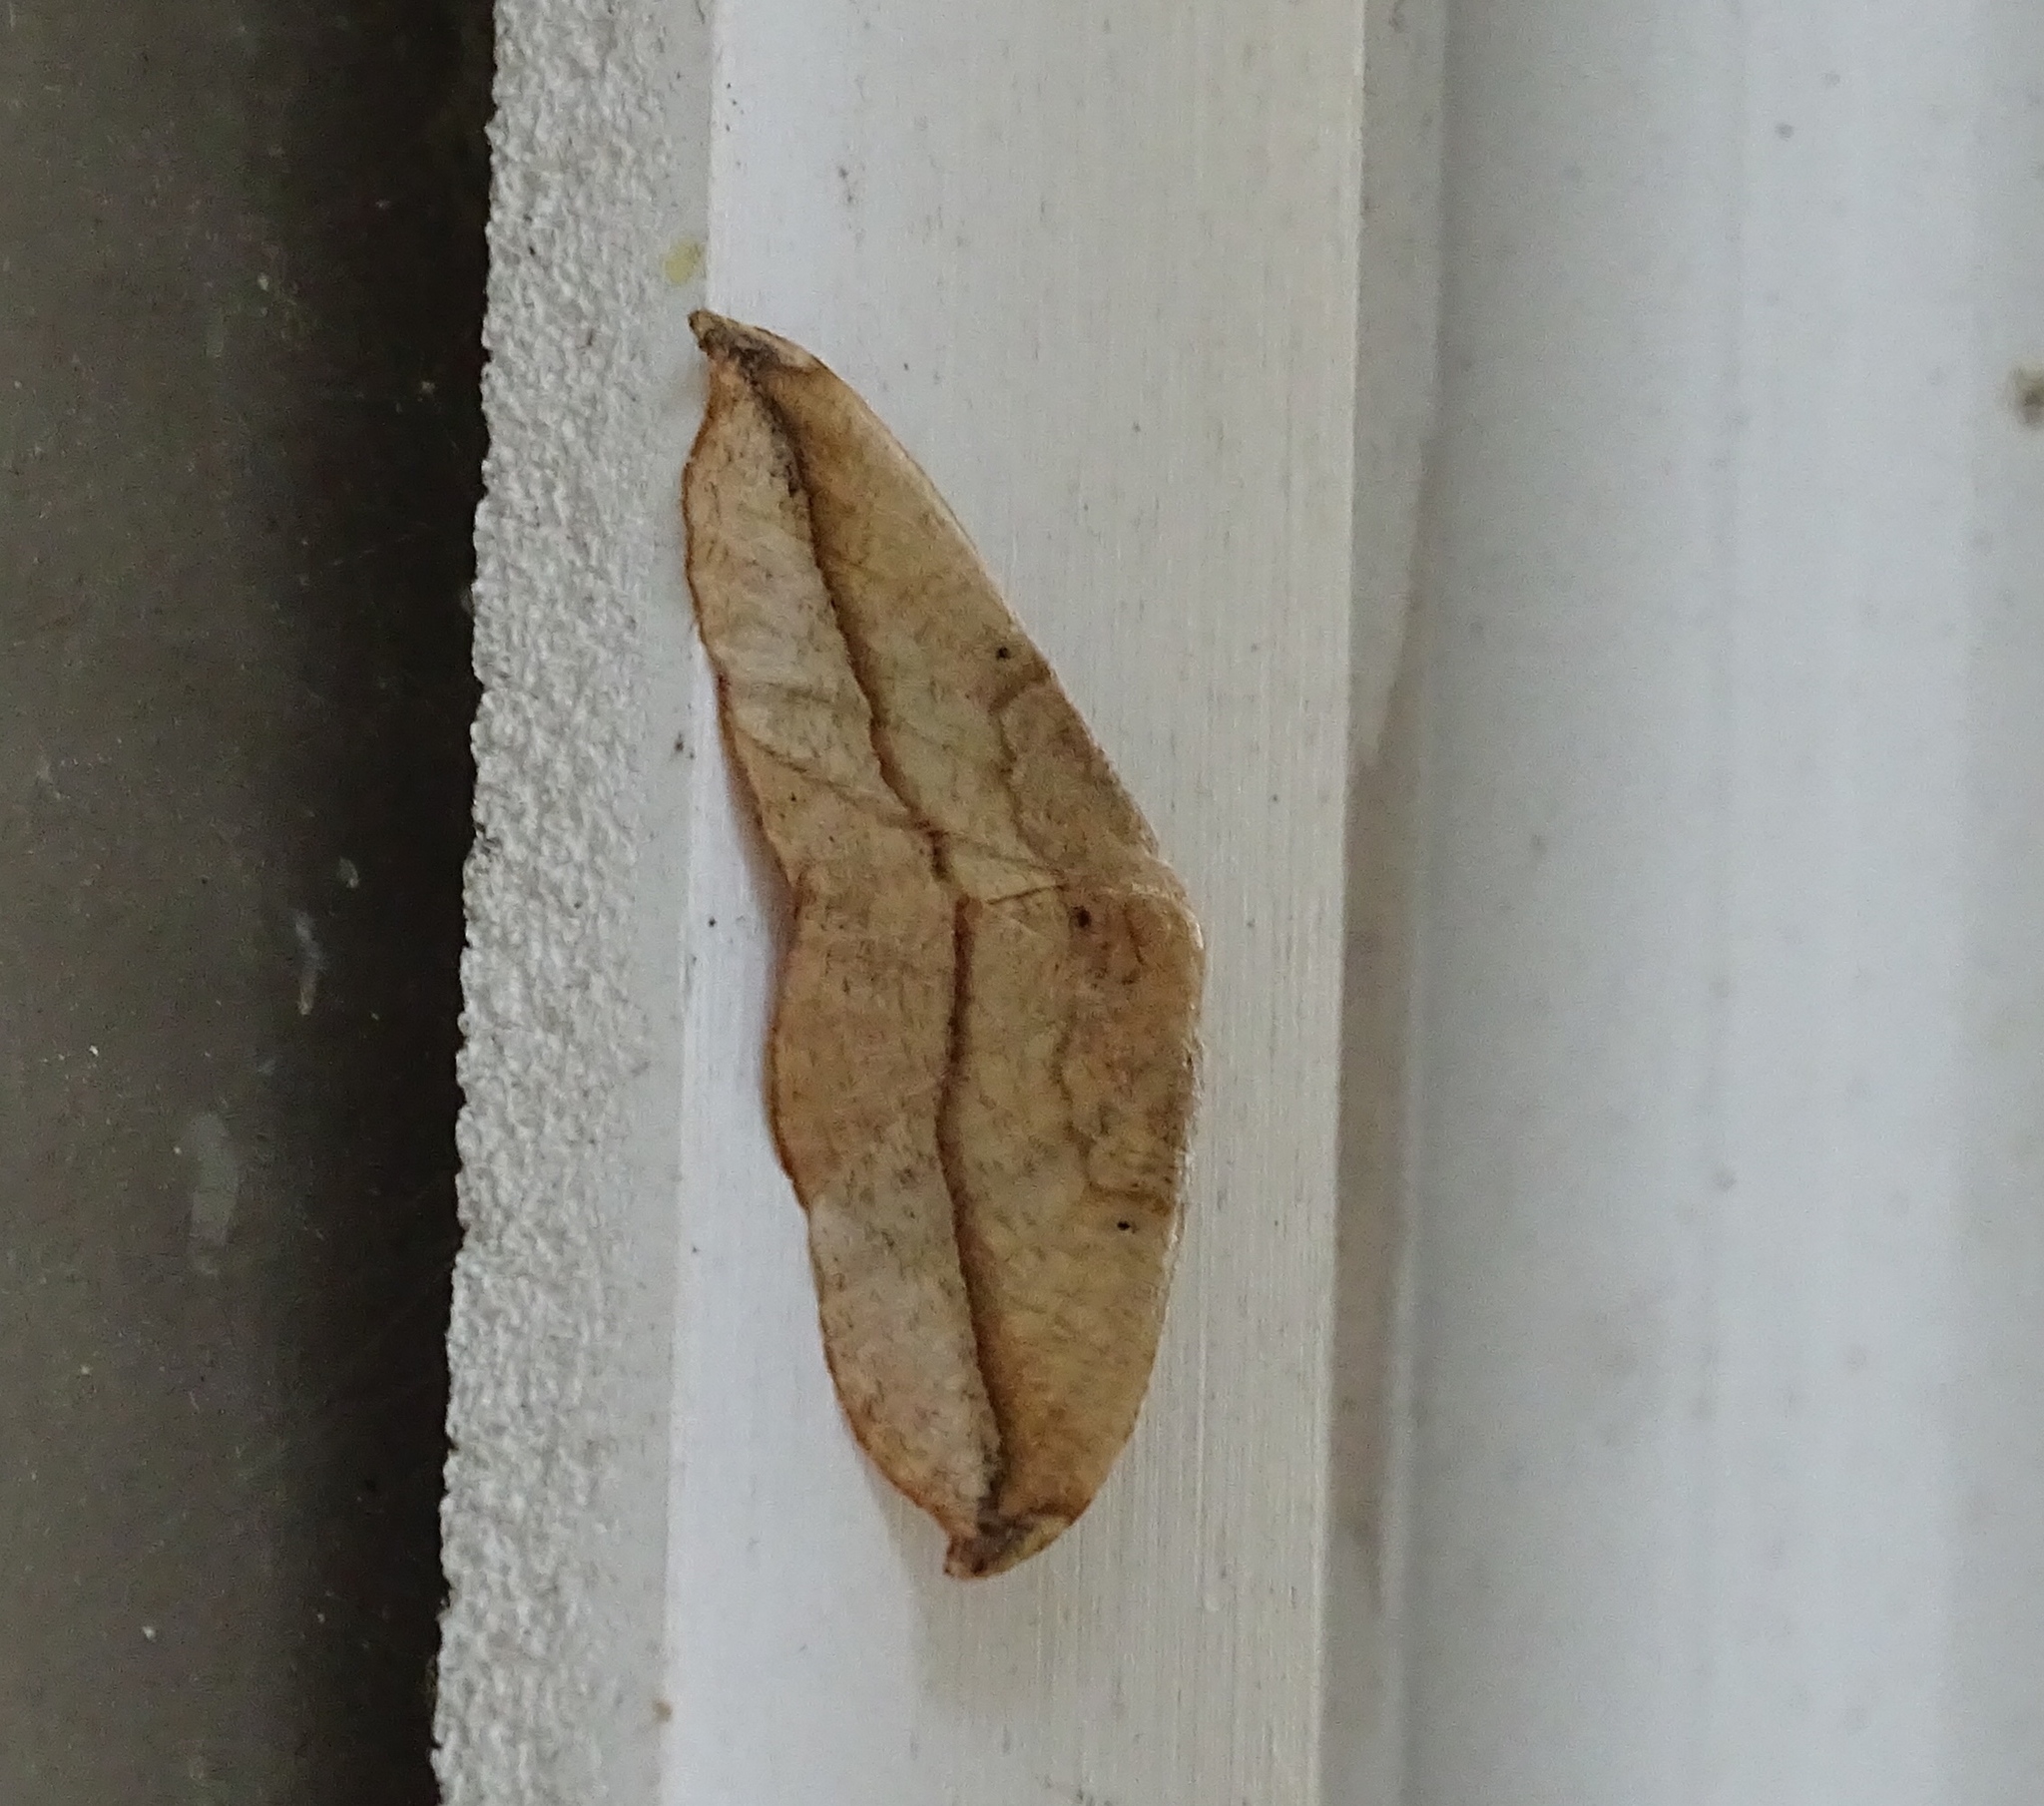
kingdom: Animalia
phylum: Arthropoda
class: Insecta
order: Lepidoptera
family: Geometridae
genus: Patalene
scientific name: Patalene olyzonaria
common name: Juniper geometer moth
